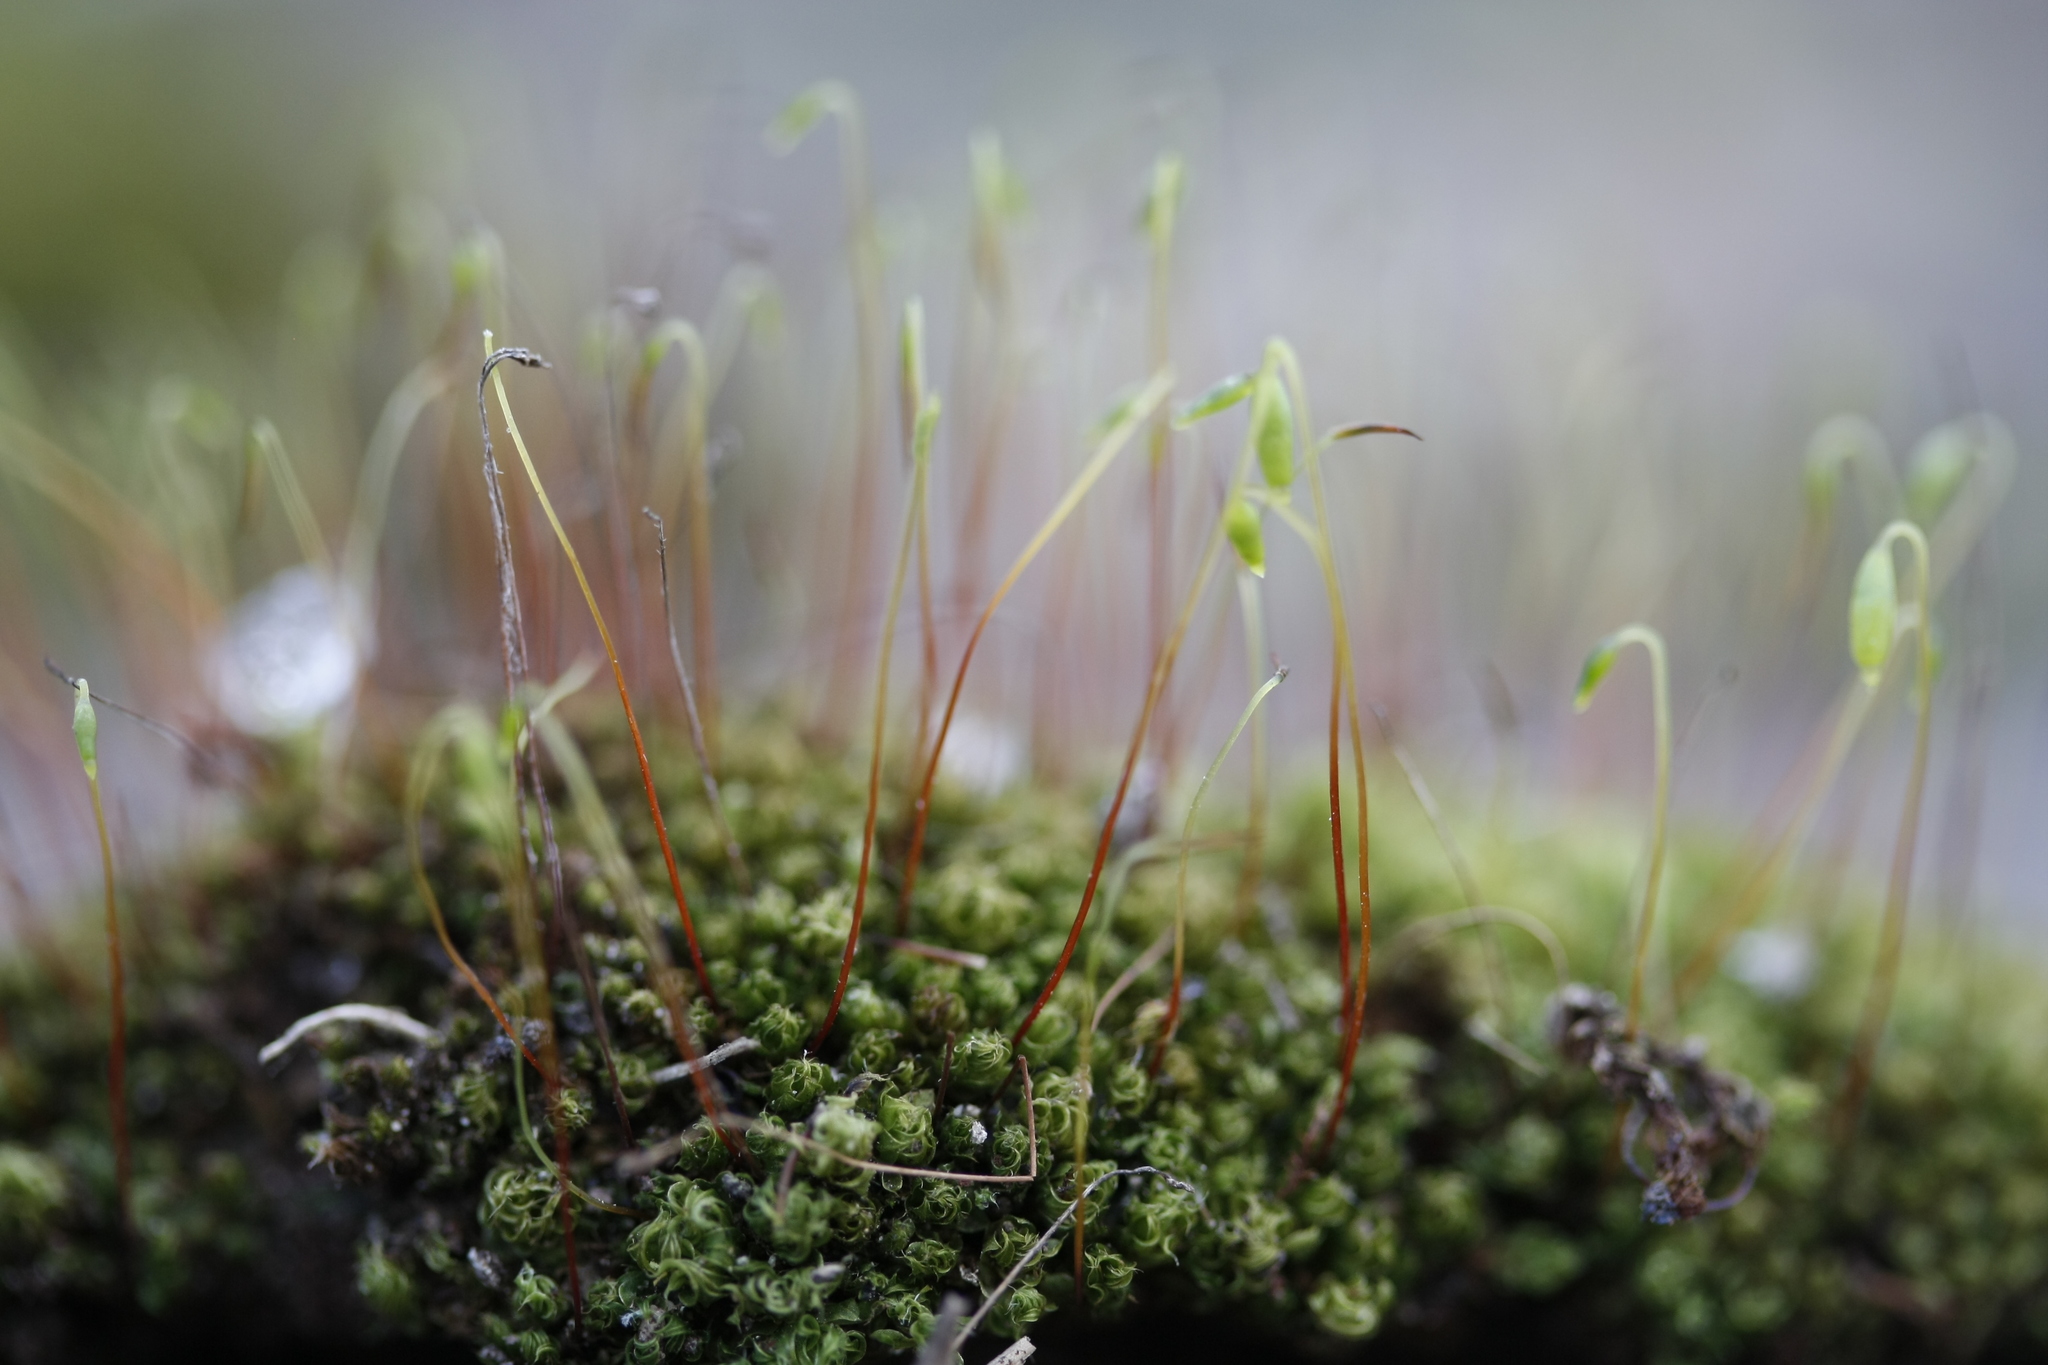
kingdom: Plantae
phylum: Bryophyta
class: Bryopsida
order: Bryales
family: Bryaceae
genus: Rosulabryum
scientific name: Rosulabryum capillare
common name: Capillary thread-moss
